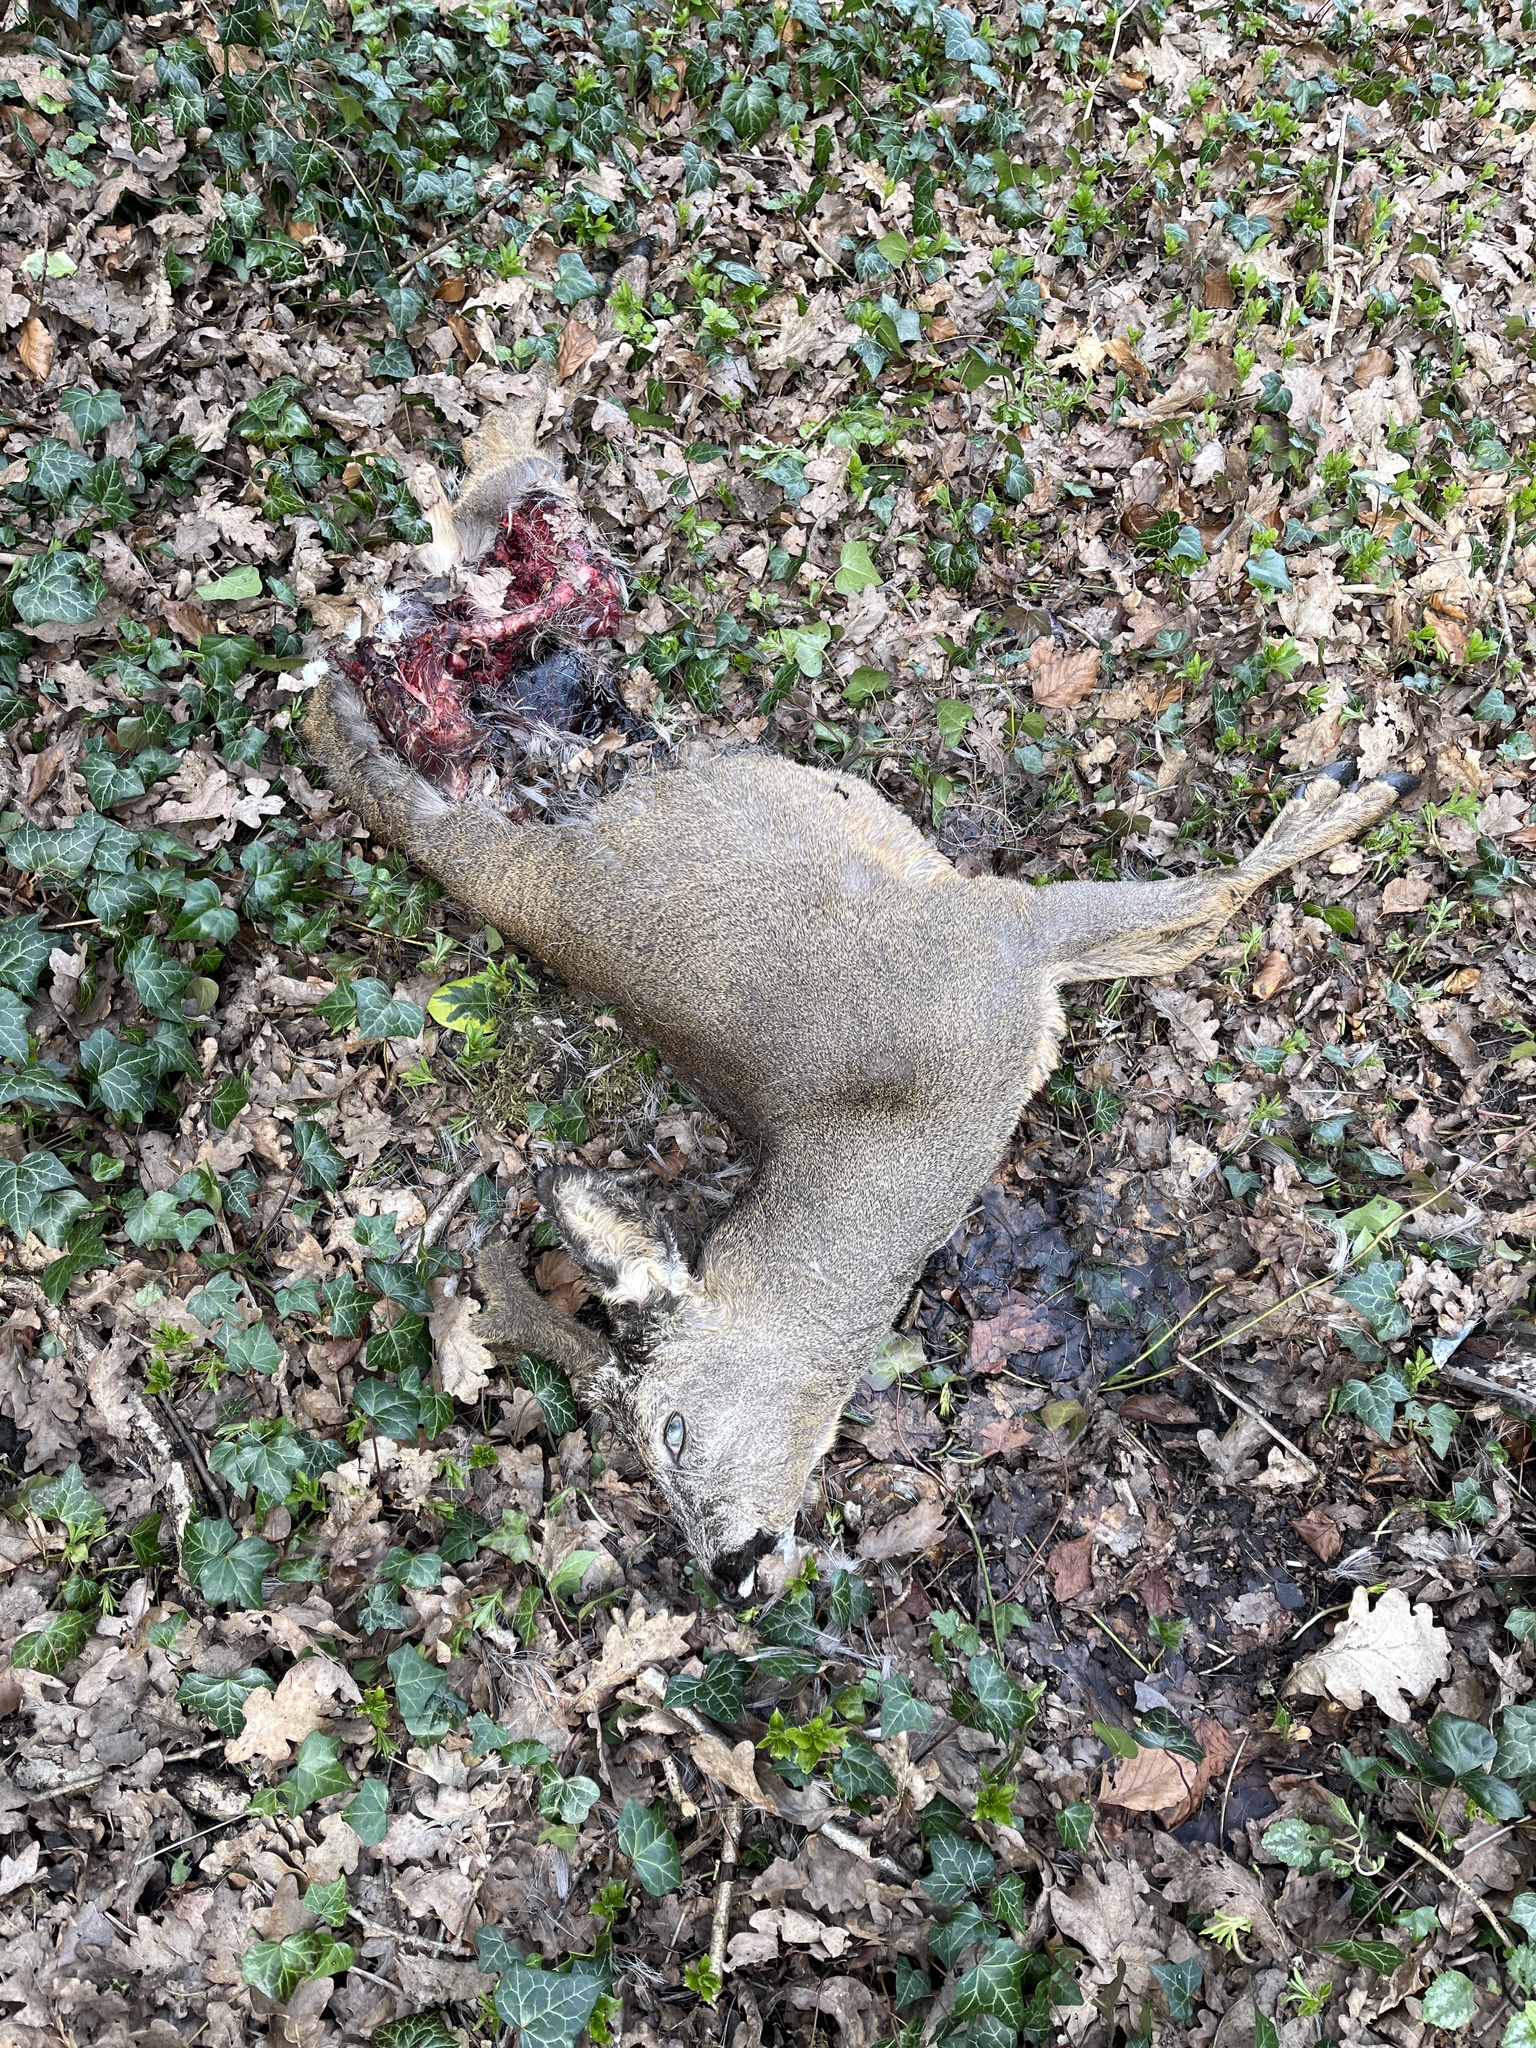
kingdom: Animalia
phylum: Chordata
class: Mammalia
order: Artiodactyla
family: Cervidae
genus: Capreolus
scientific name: Capreolus capreolus
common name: Western roe deer
